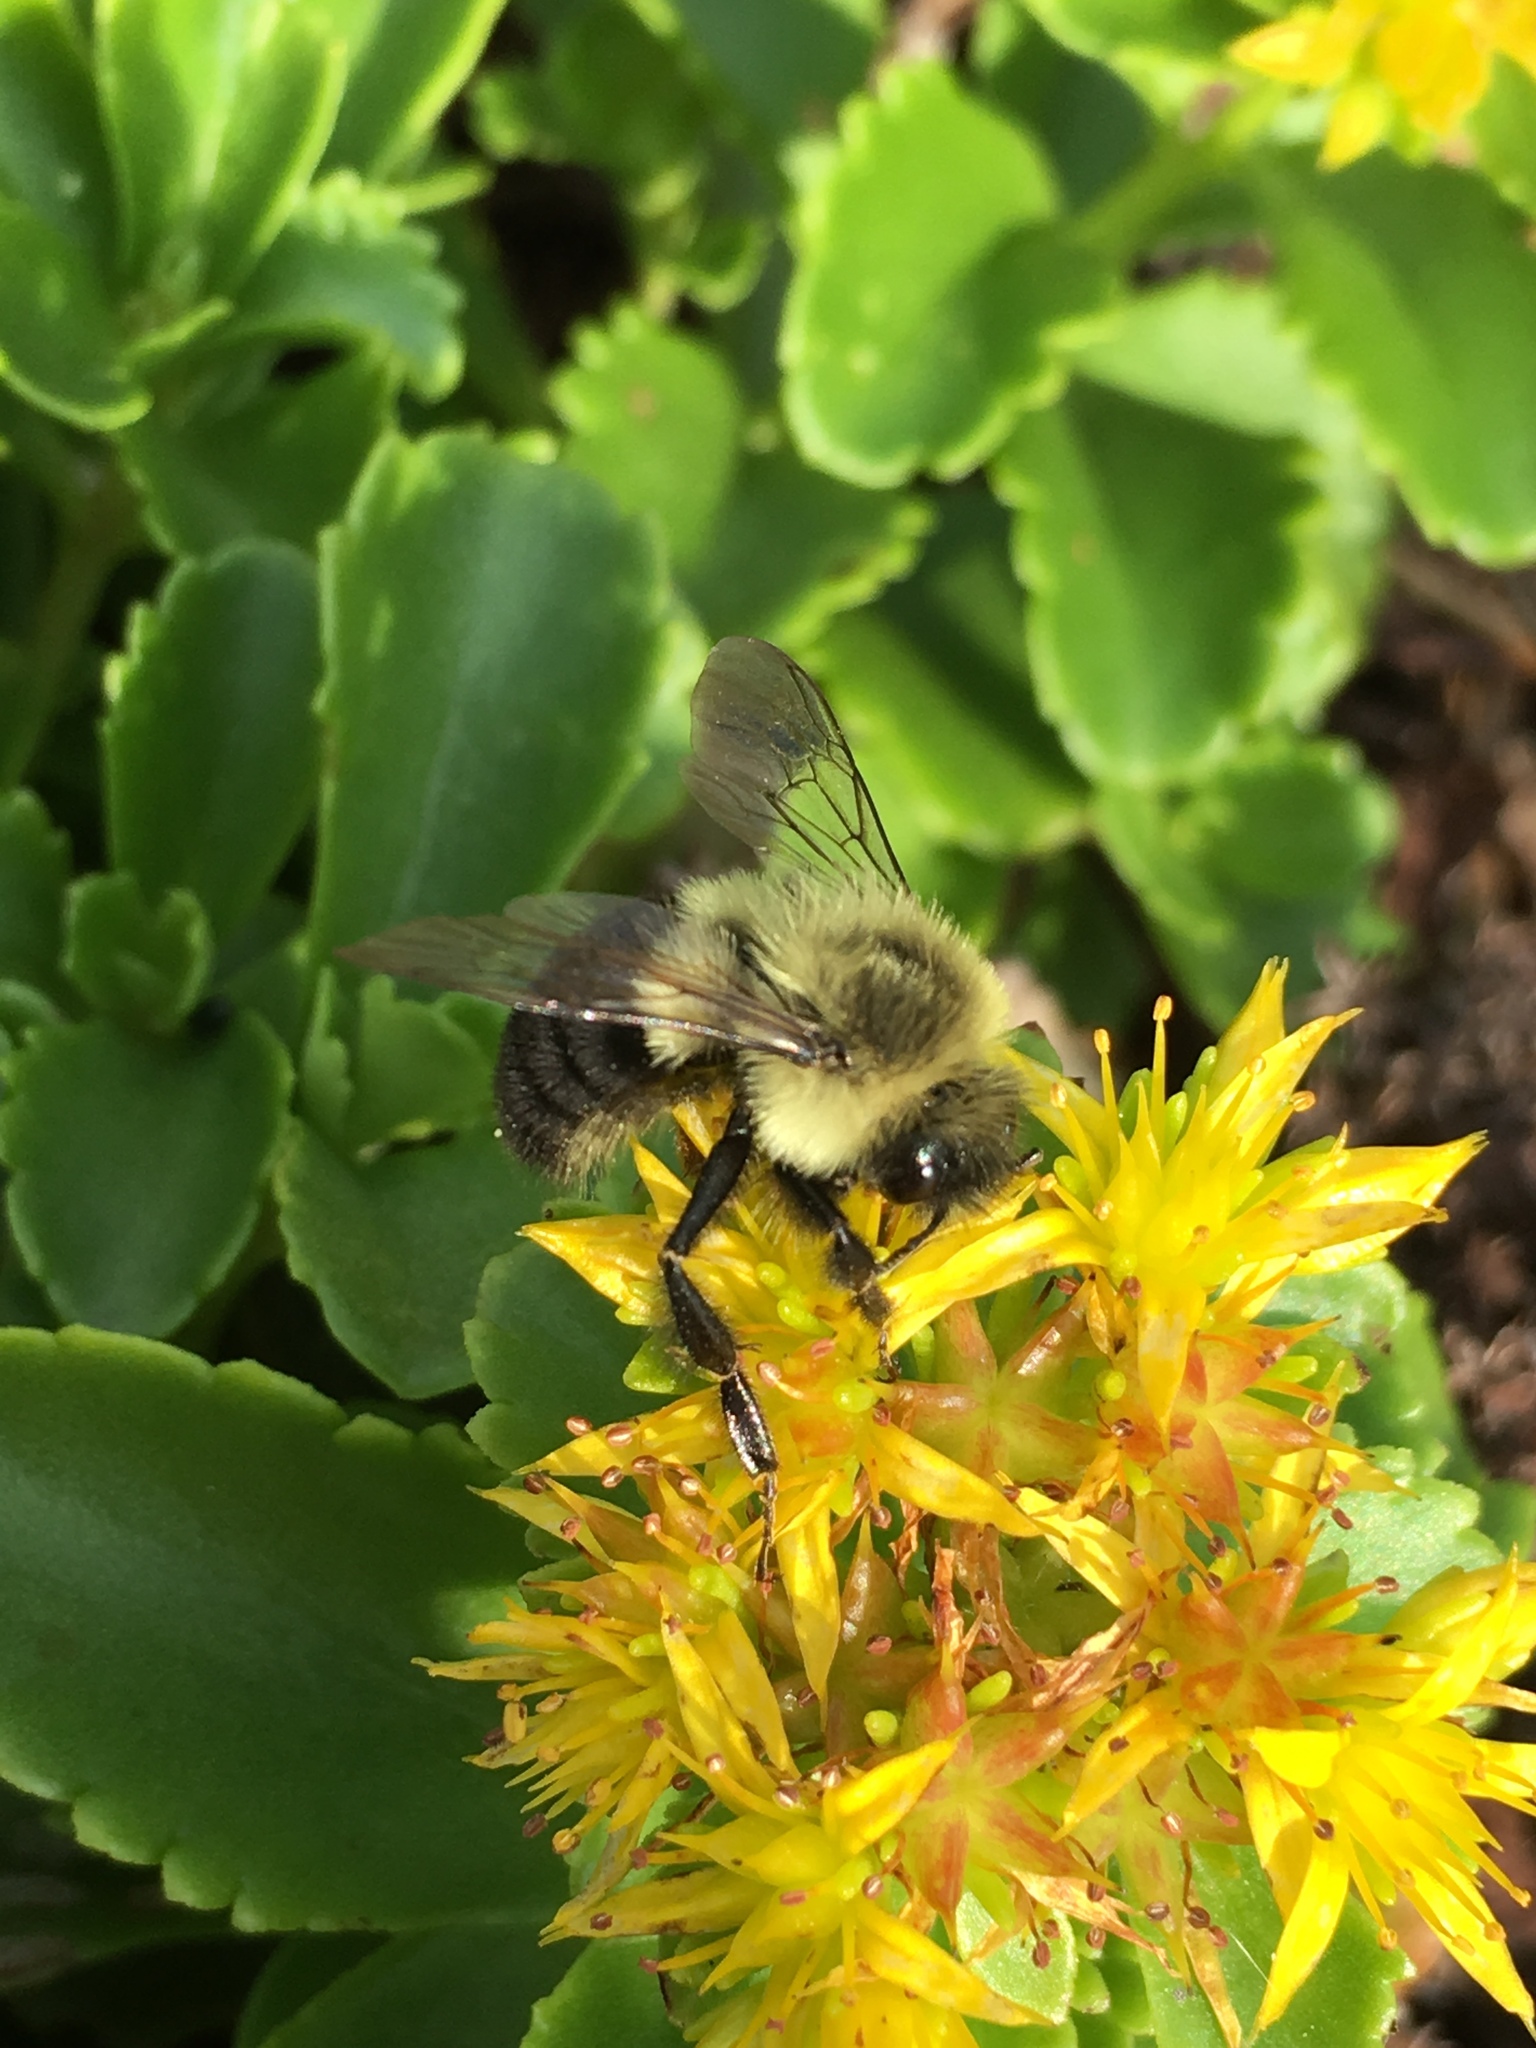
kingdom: Animalia
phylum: Arthropoda
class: Insecta
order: Hymenoptera
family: Apidae
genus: Bombus
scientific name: Bombus impatiens
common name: Common eastern bumble bee
